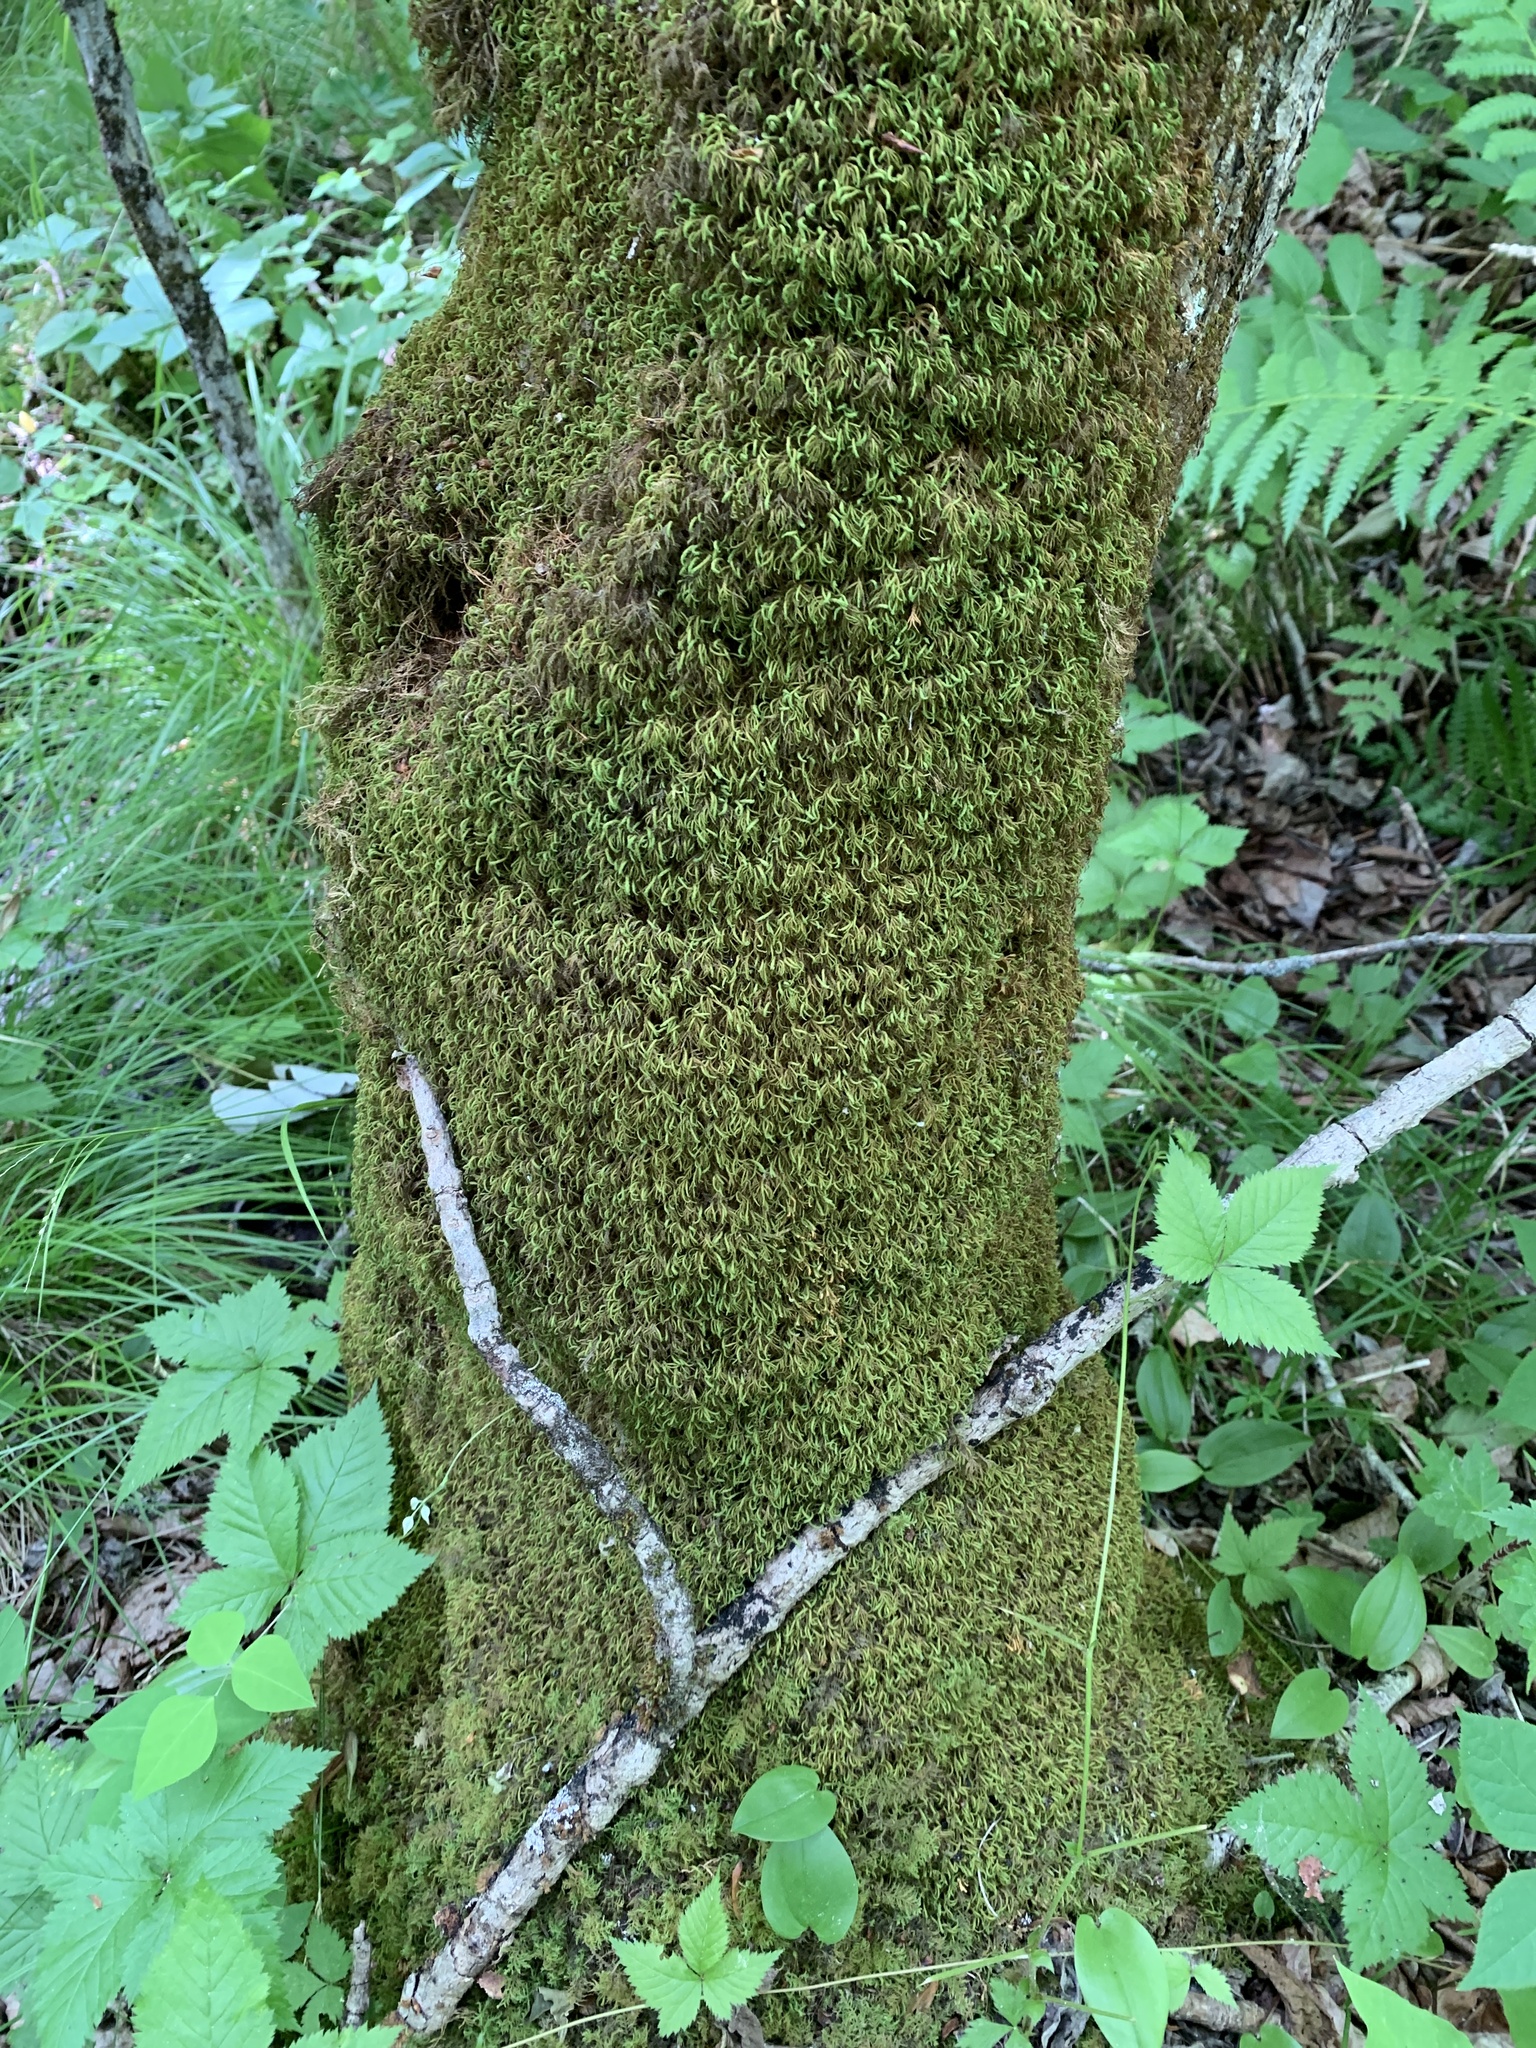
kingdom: Plantae
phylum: Bryophyta
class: Bryopsida
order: Hypnales
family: Neckeraceae
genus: Pseudanomodon
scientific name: Pseudanomodon attenuatus
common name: Tree-skirt moss
